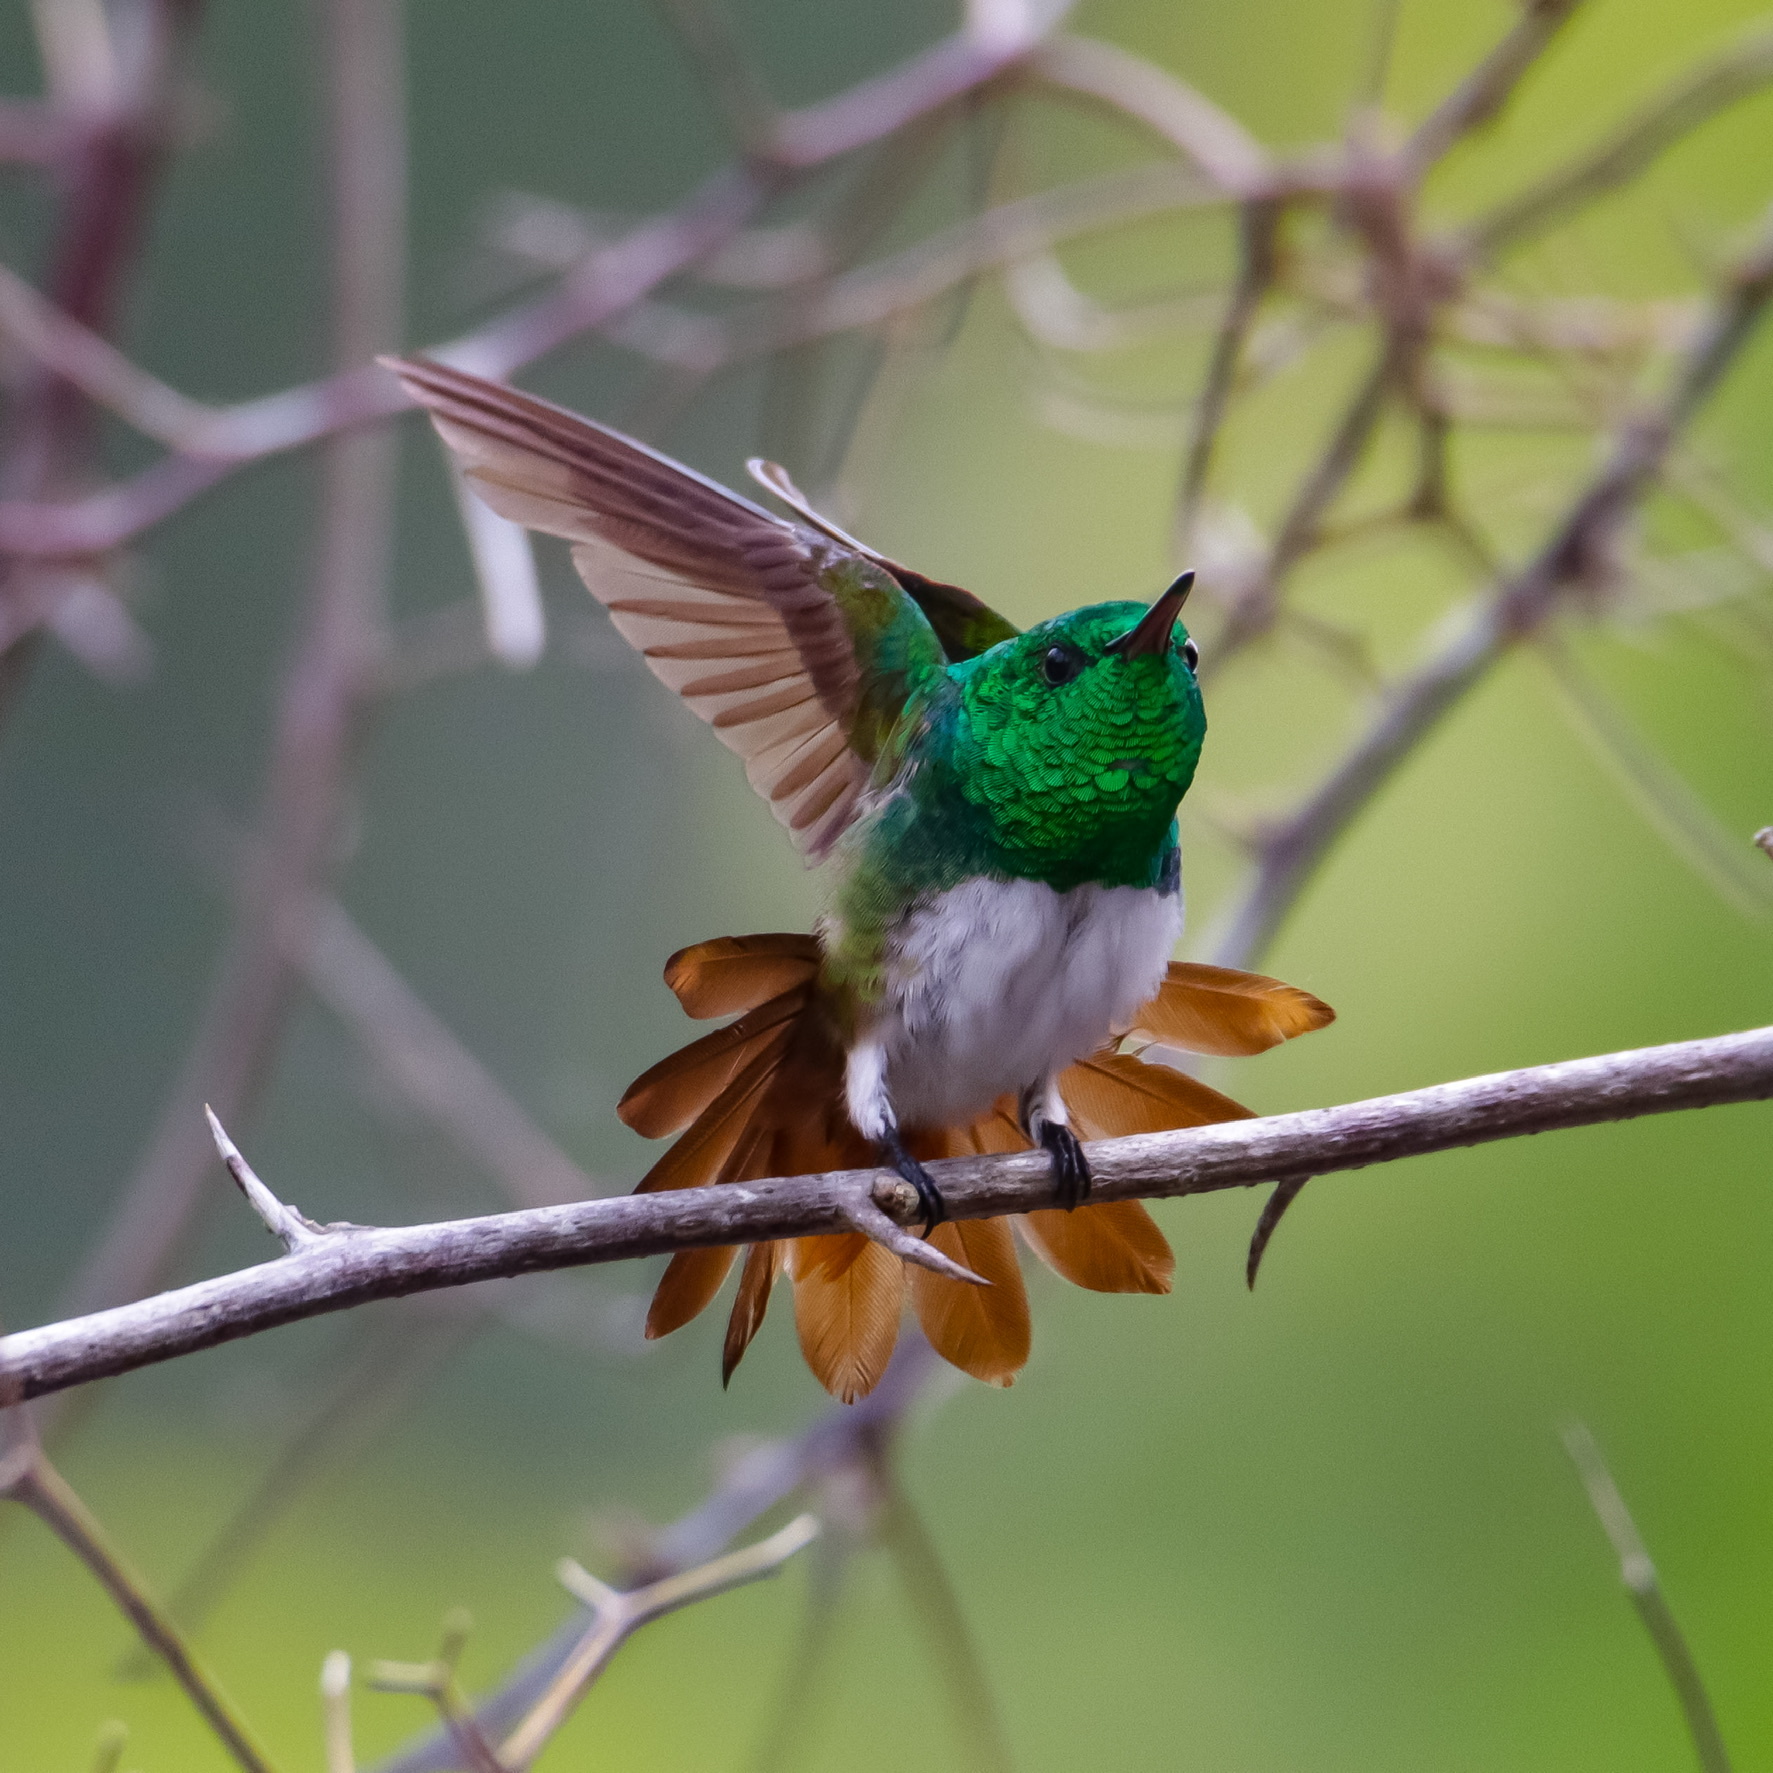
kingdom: Animalia
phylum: Chordata
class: Aves
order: Apodiformes
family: Trochilidae
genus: Saucerottia
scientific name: Saucerottia edward
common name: Snowy-bellied hummingbird
